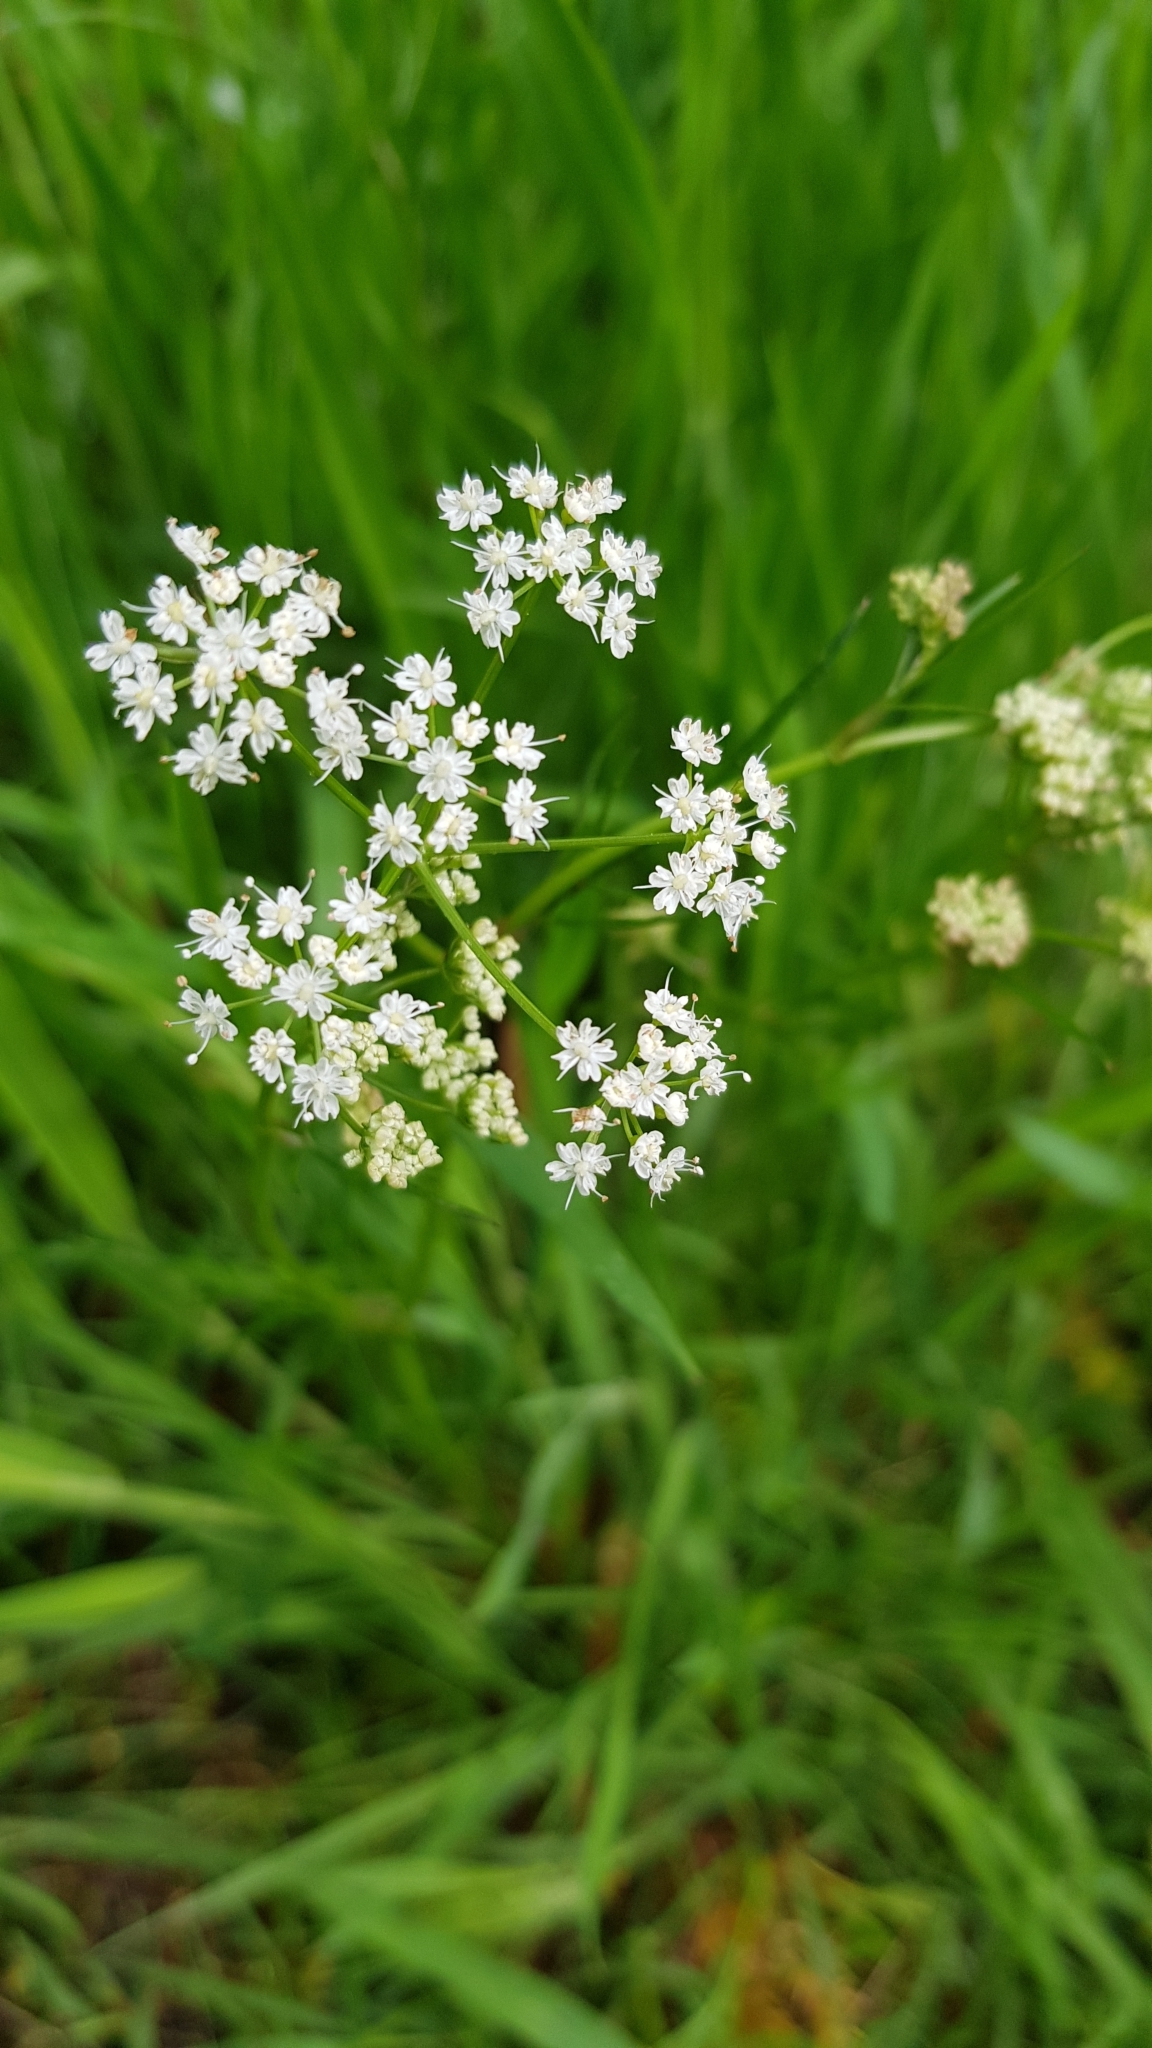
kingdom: Plantae
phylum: Tracheophyta
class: Magnoliopsida
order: Apiales
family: Apiaceae
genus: Conopodium
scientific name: Conopodium majus
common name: Pignut
